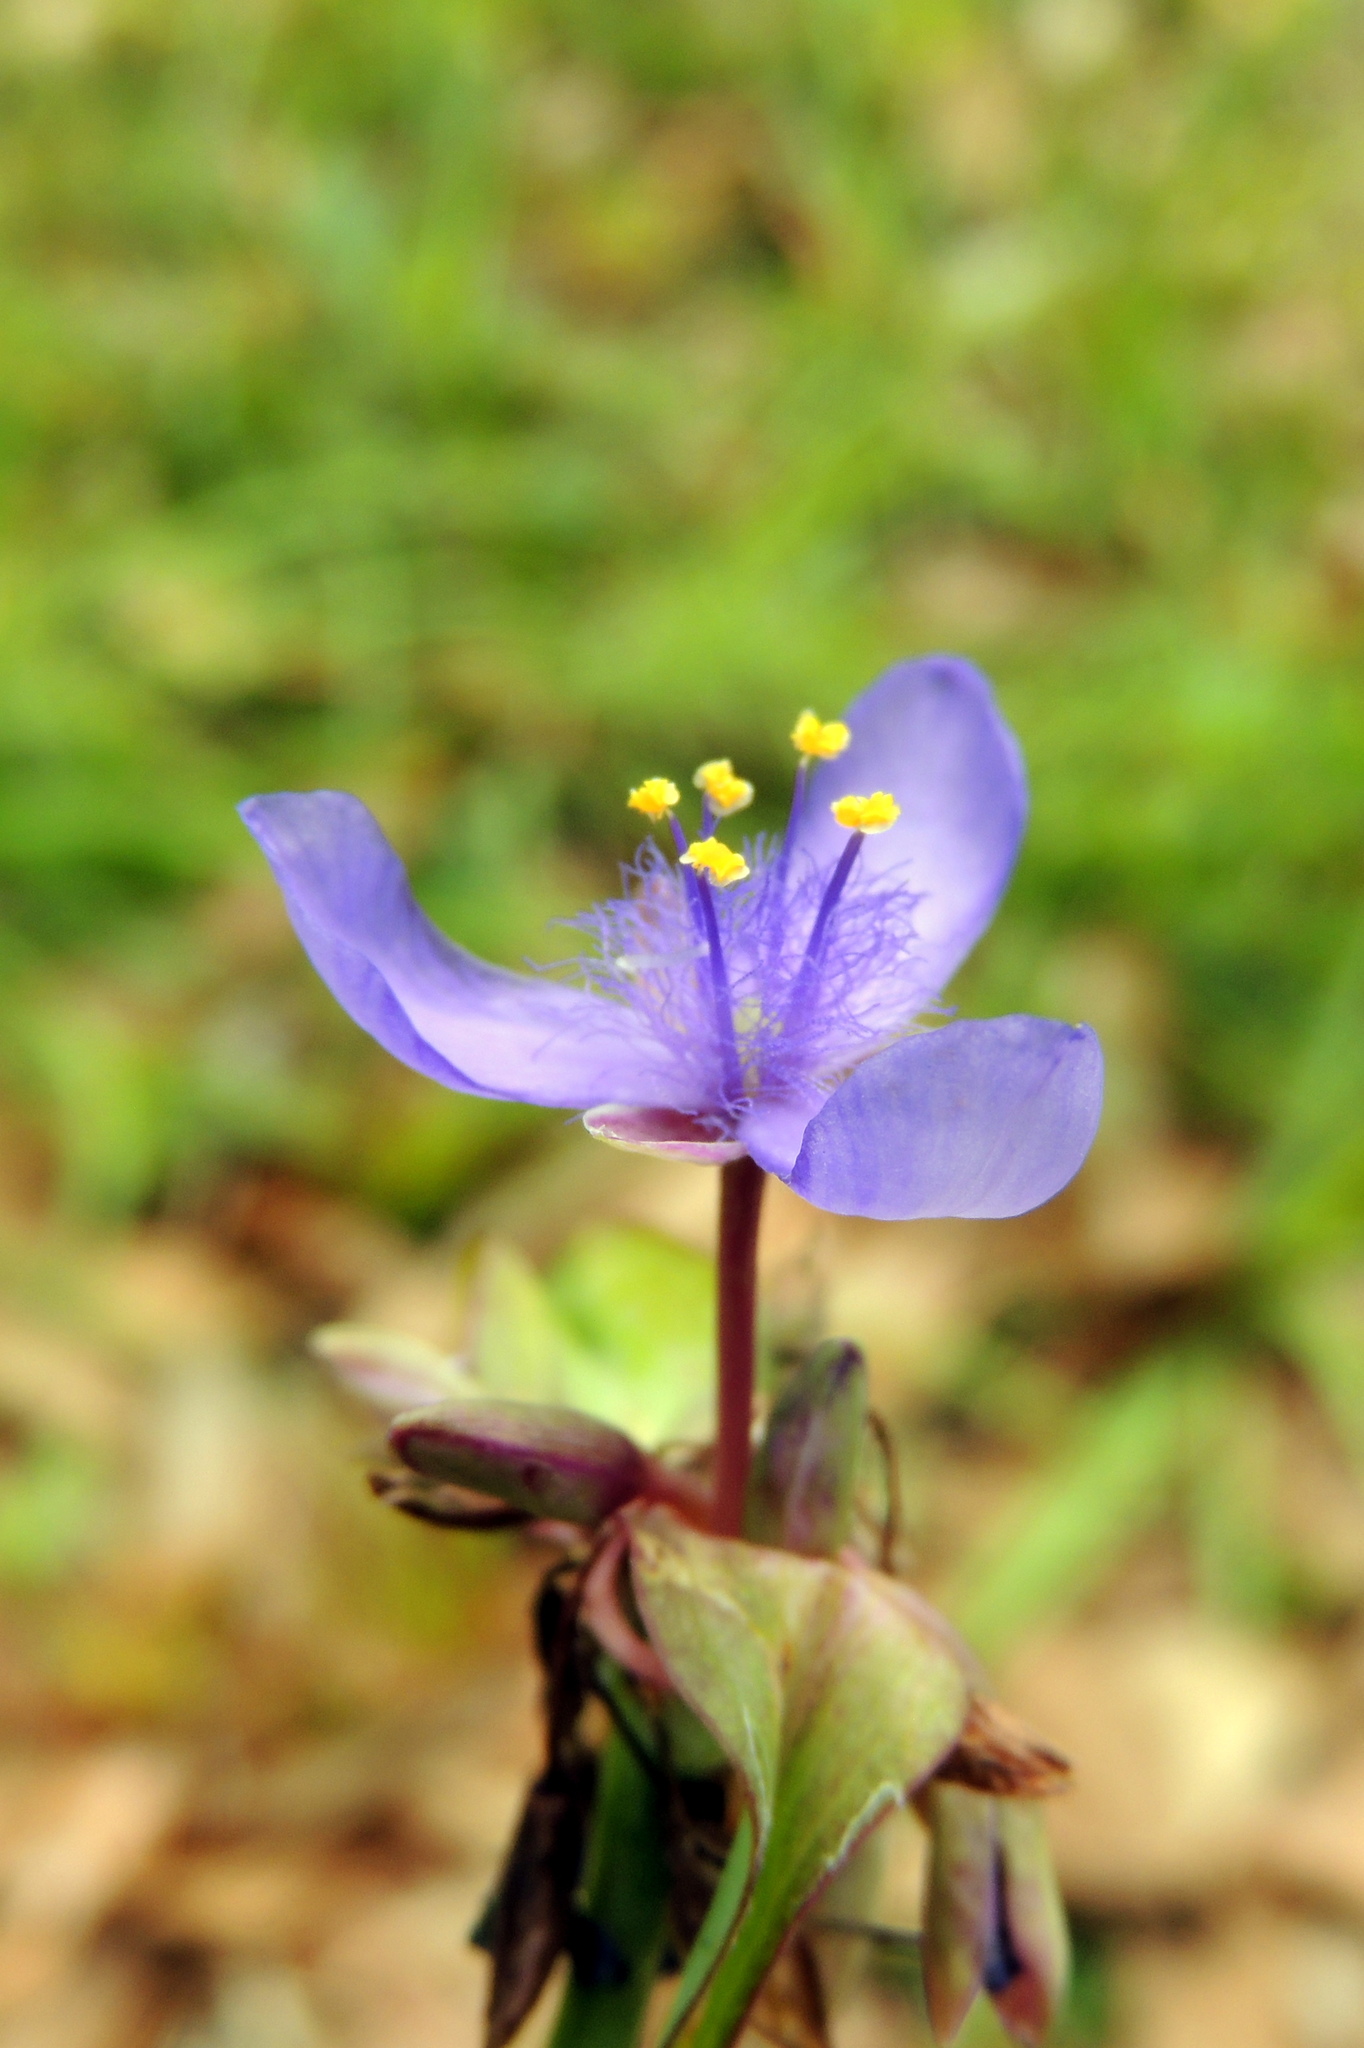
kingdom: Plantae
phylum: Tracheophyta
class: Liliopsida
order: Commelinales
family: Commelinaceae
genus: Tradescantia
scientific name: Tradescantia ohiensis
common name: Ohio spiderwort
